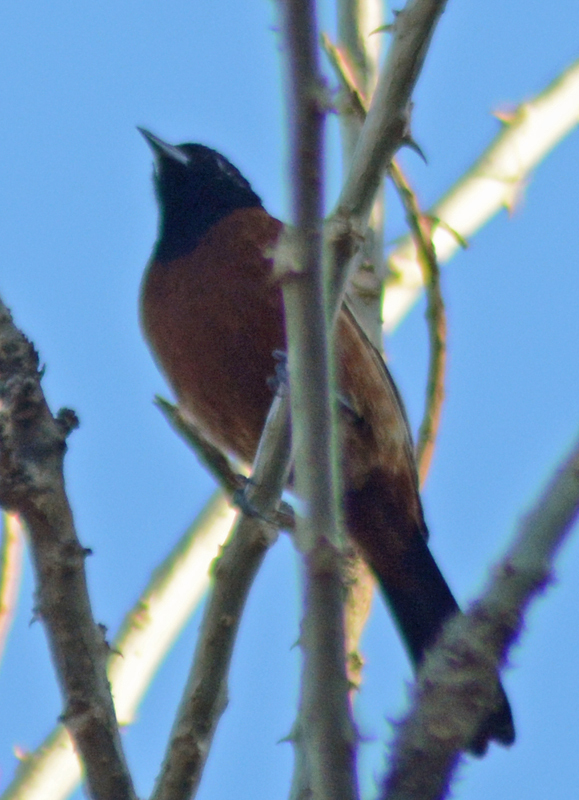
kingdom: Animalia
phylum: Chordata
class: Aves
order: Passeriformes
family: Icteridae
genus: Icterus
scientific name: Icterus spurius
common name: Orchard oriole
